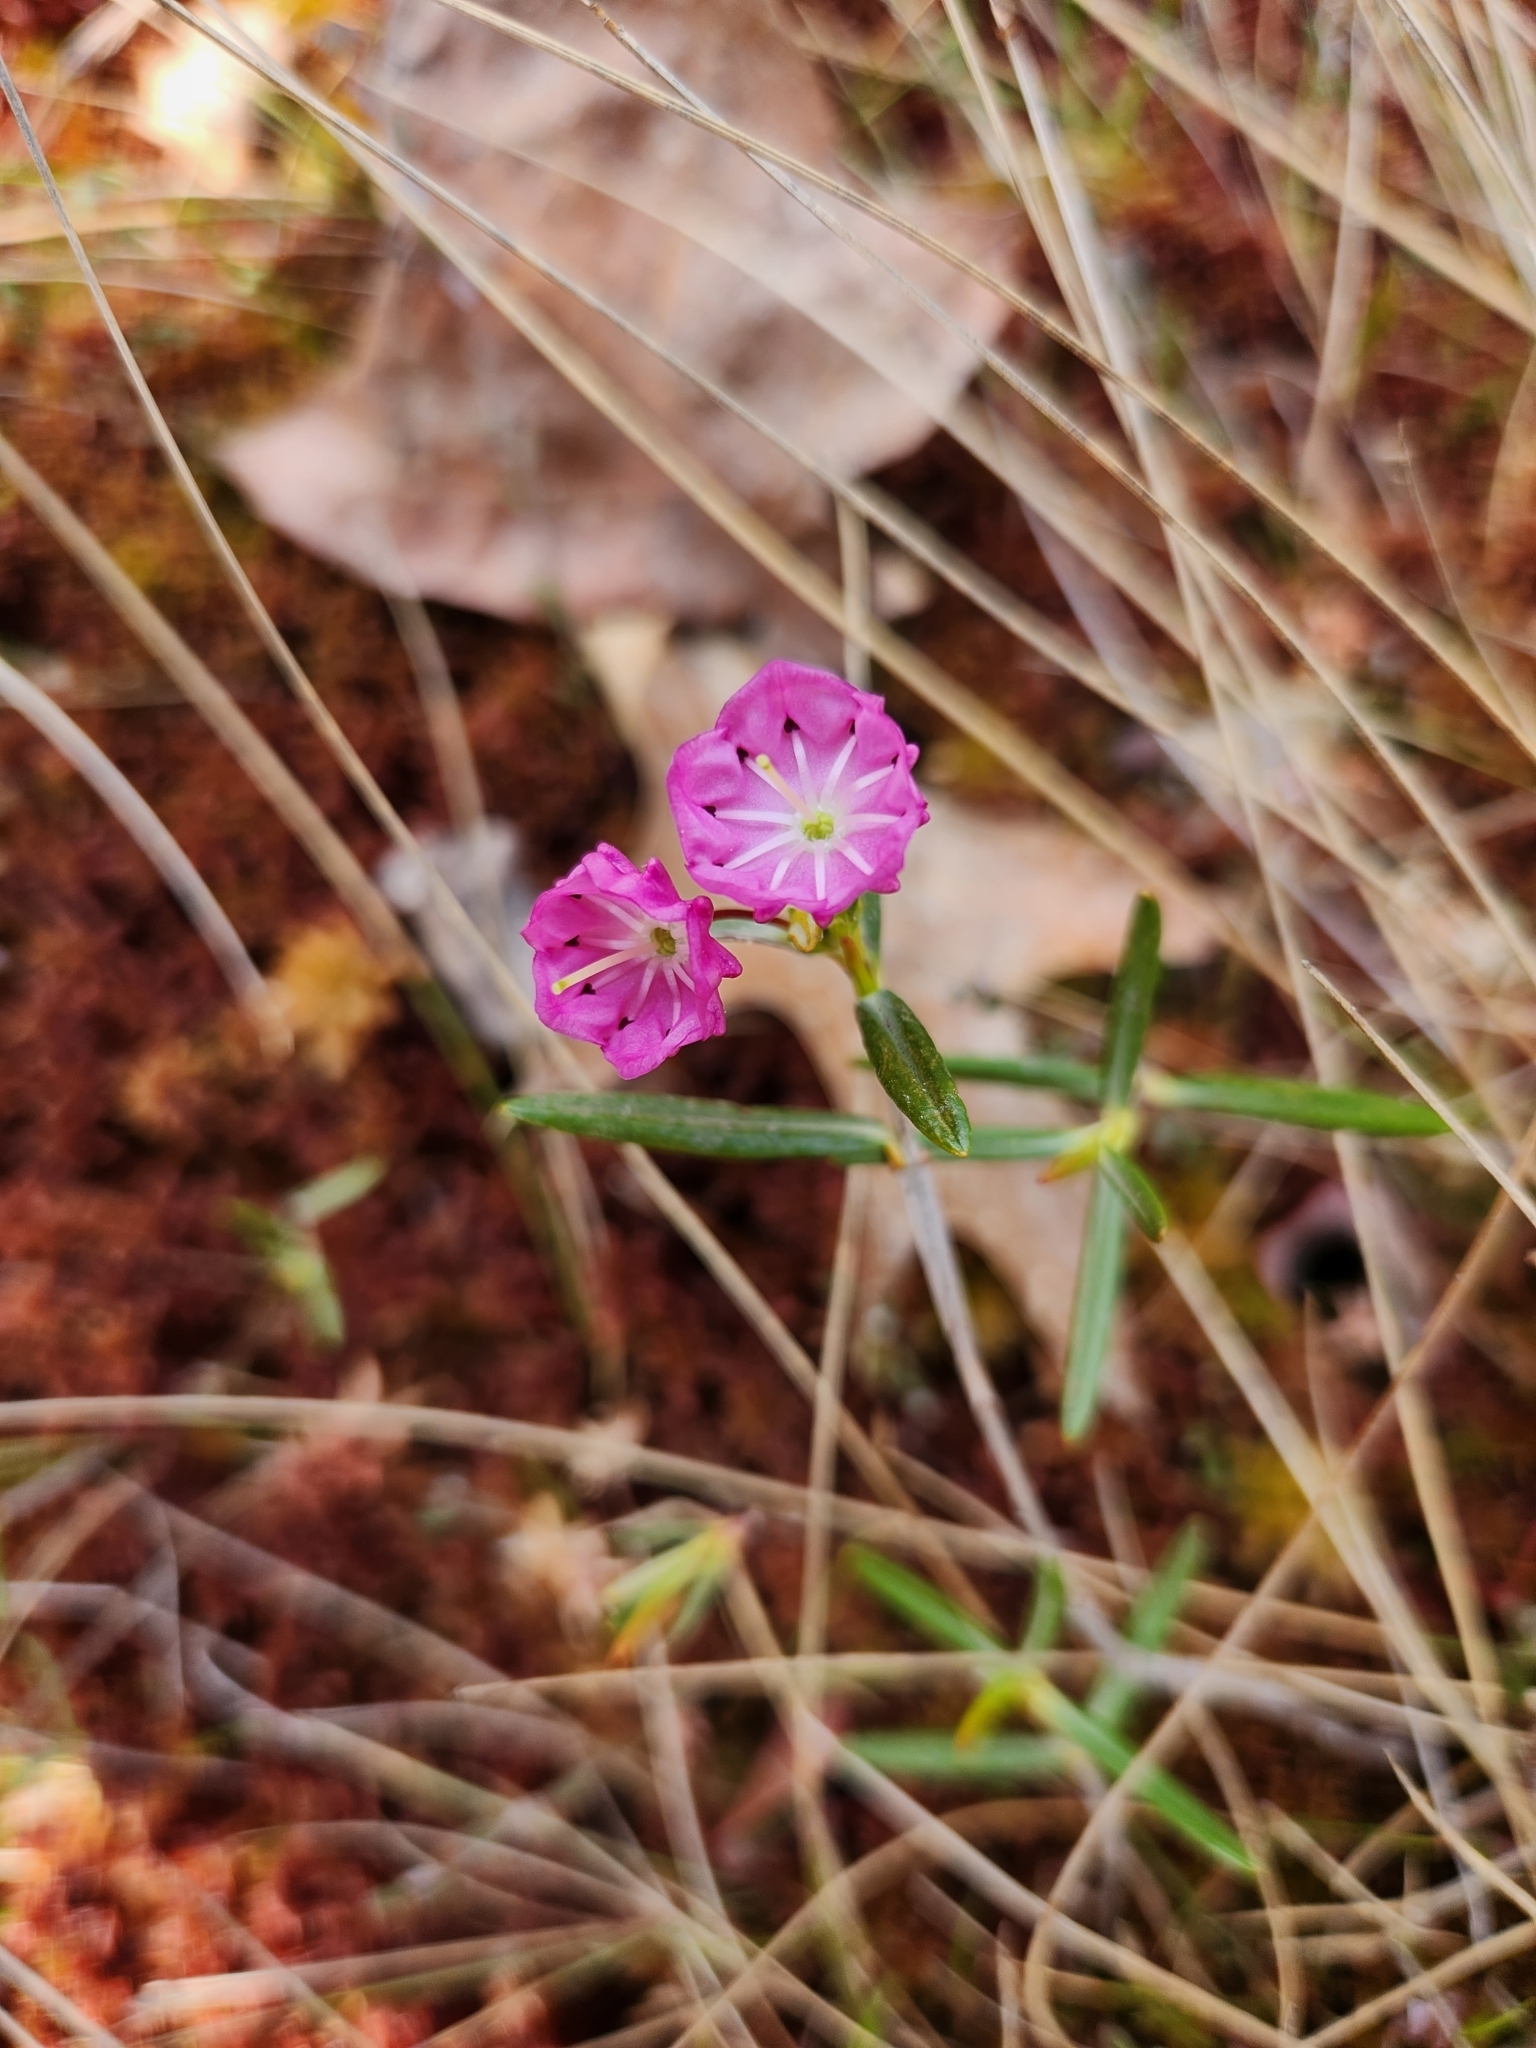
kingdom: Plantae
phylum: Tracheophyta
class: Magnoliopsida
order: Ericales
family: Ericaceae
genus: Kalmia
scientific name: Kalmia polifolia
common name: Bog-laurel
